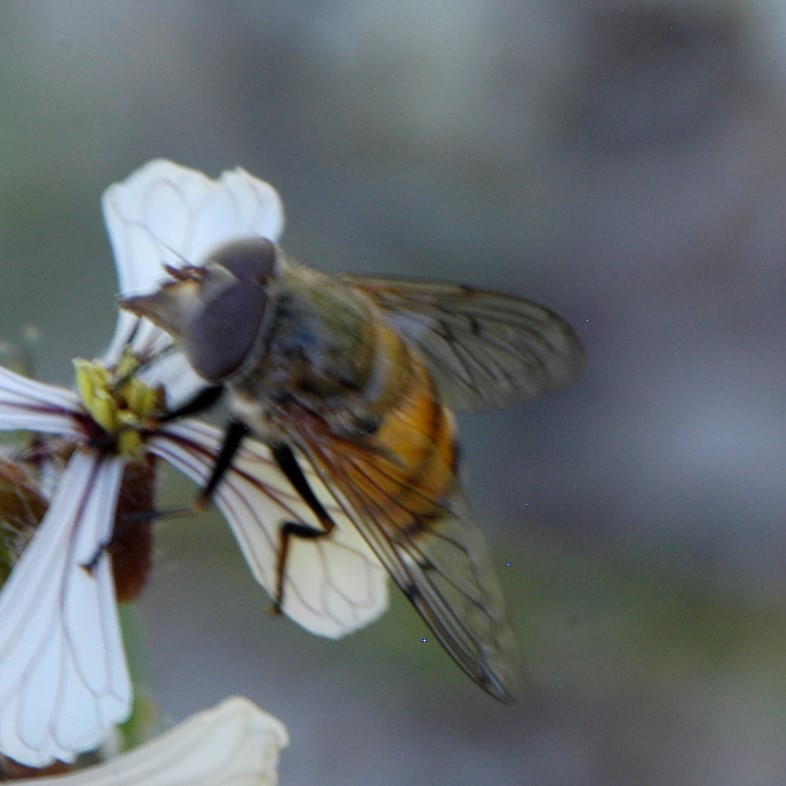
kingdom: Animalia
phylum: Arthropoda
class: Insecta
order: Diptera
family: Syrphidae
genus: Copestylum
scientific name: Copestylum haagii
